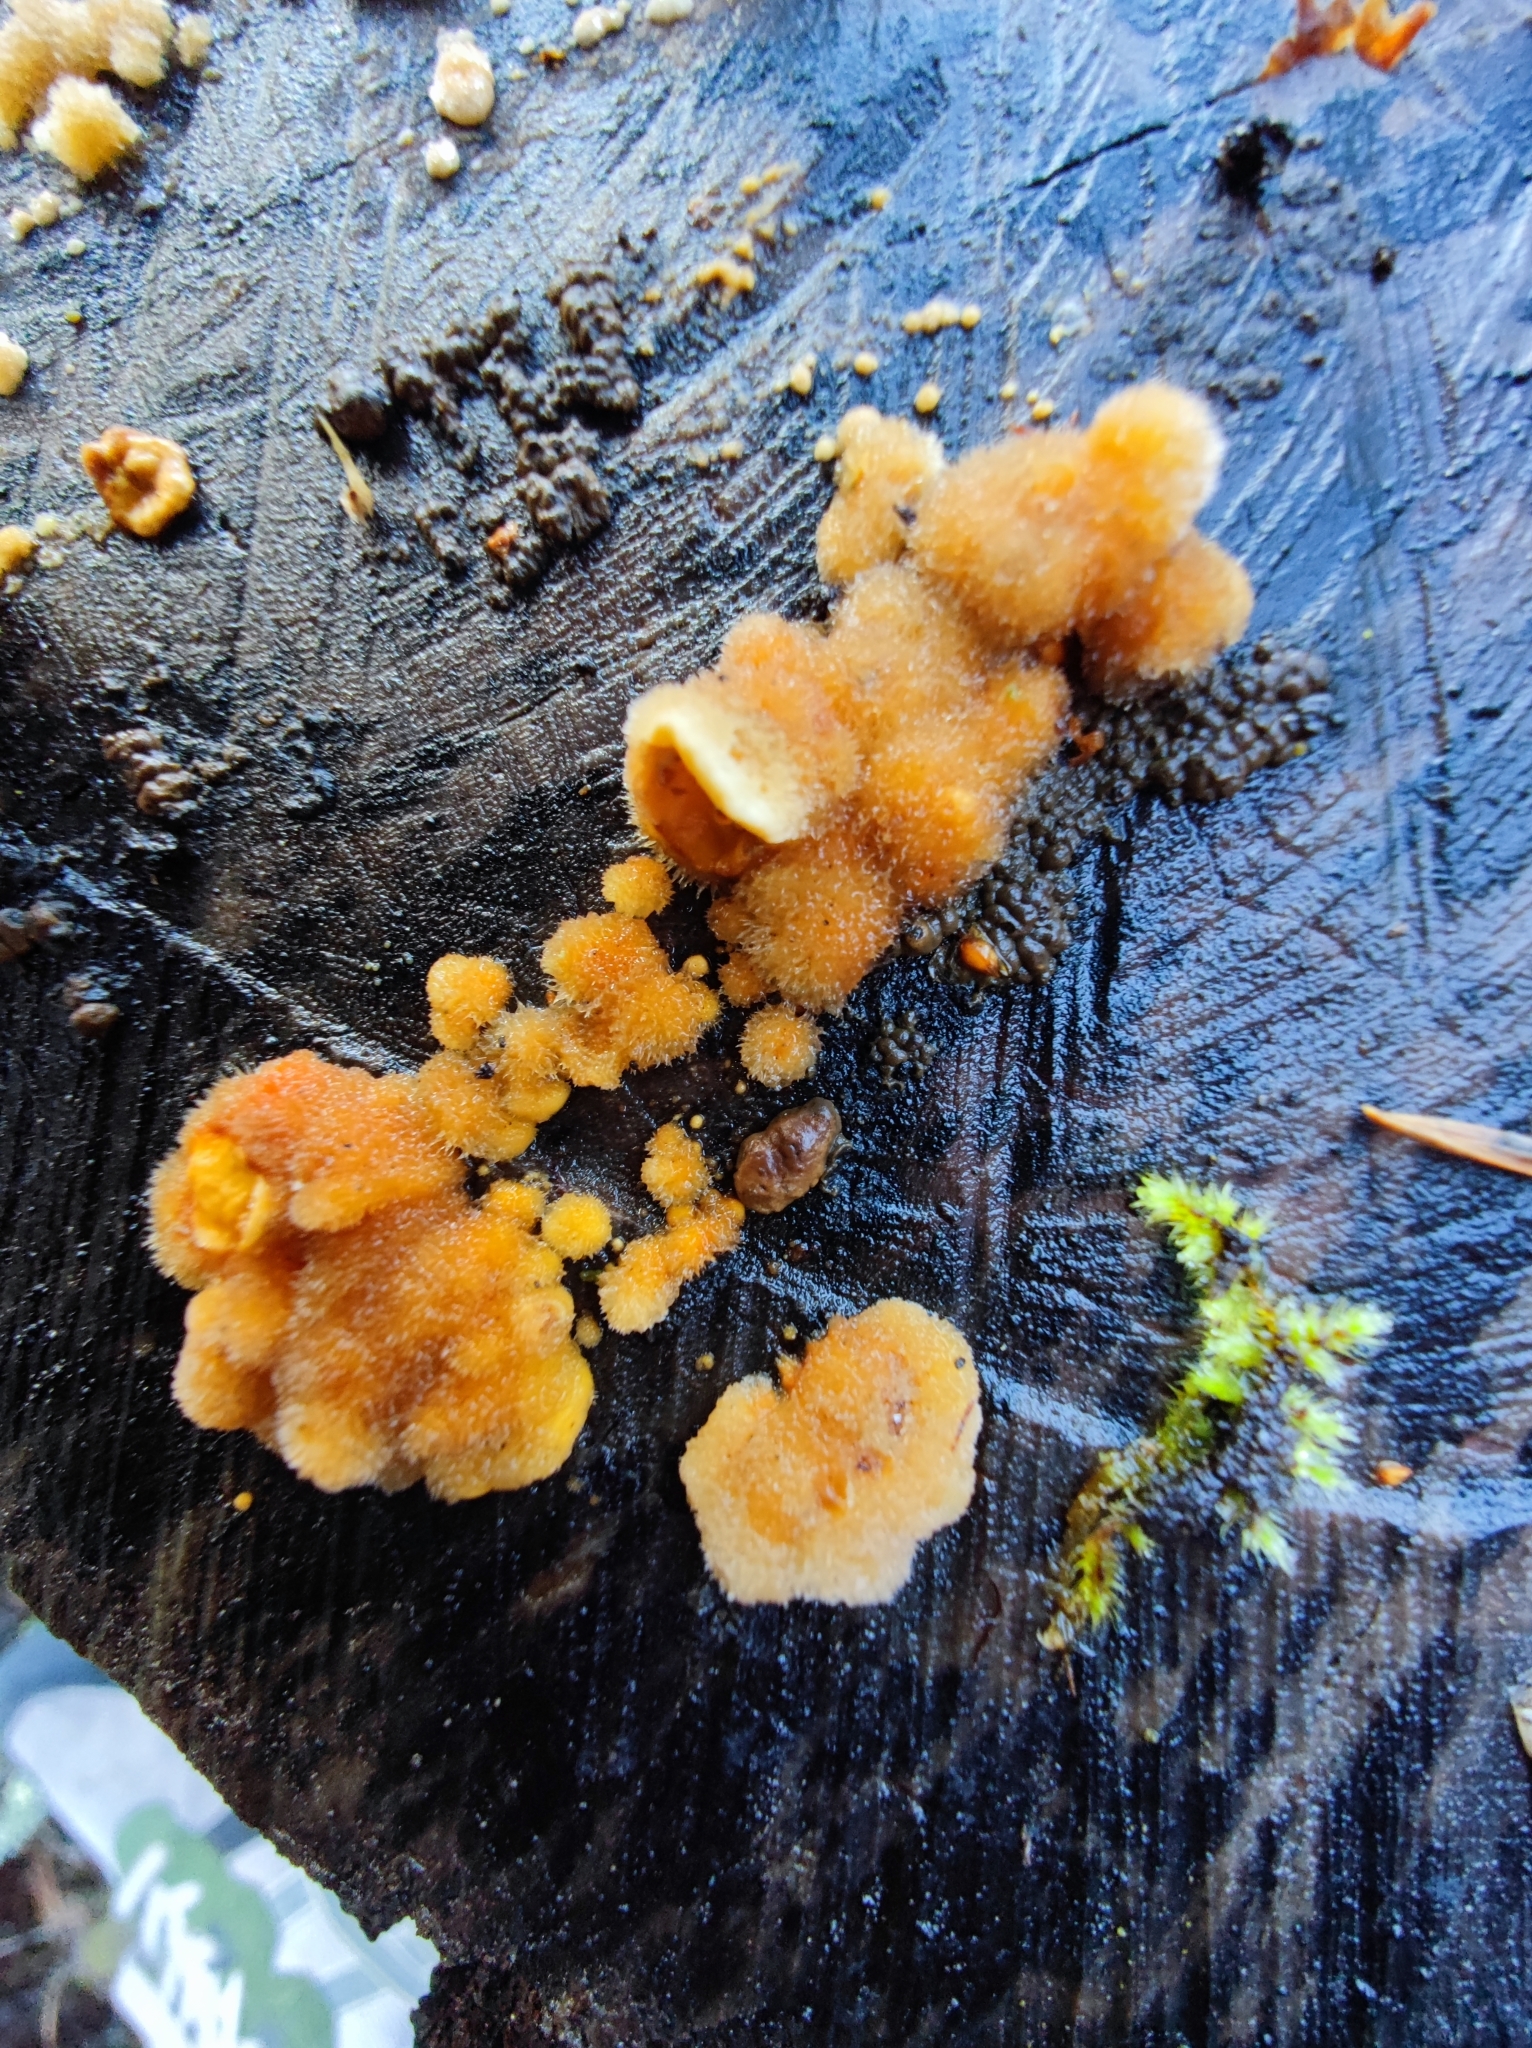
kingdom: Fungi
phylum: Basidiomycota
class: Agaricomycetes
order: Russulales
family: Stereaceae
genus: Stereum
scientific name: Stereum hirsutum
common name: Hairy curtain crust
